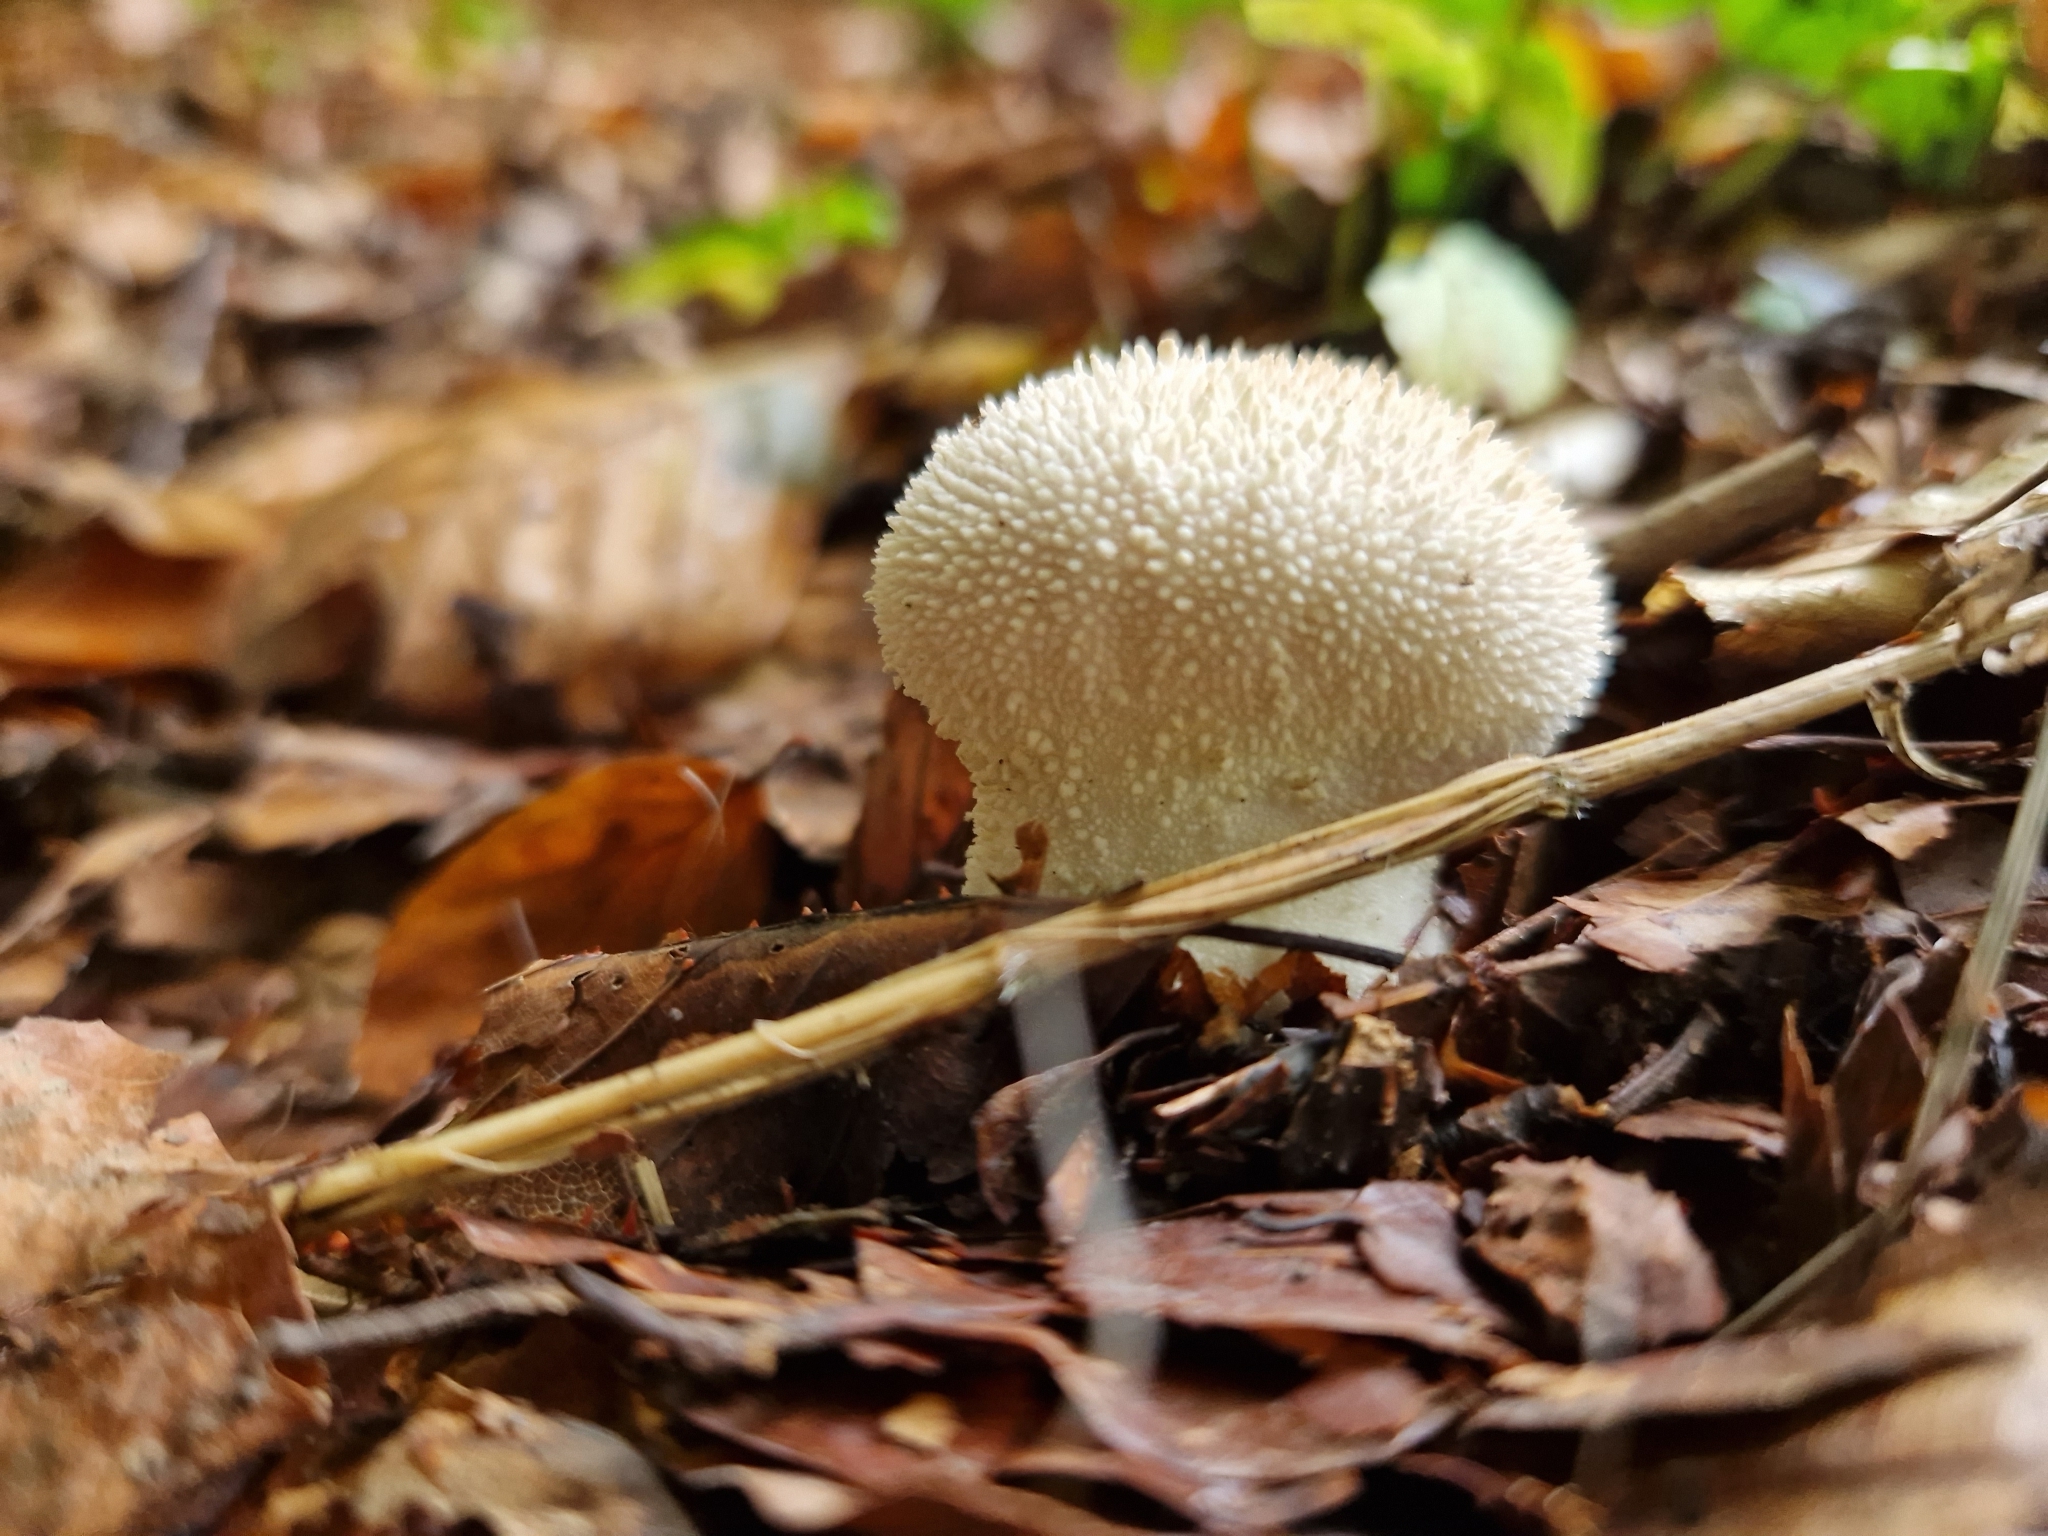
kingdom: Fungi
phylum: Basidiomycota
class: Agaricomycetes
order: Agaricales
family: Lycoperdaceae
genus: Lycoperdon
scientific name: Lycoperdon perlatum
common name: Common puffball
